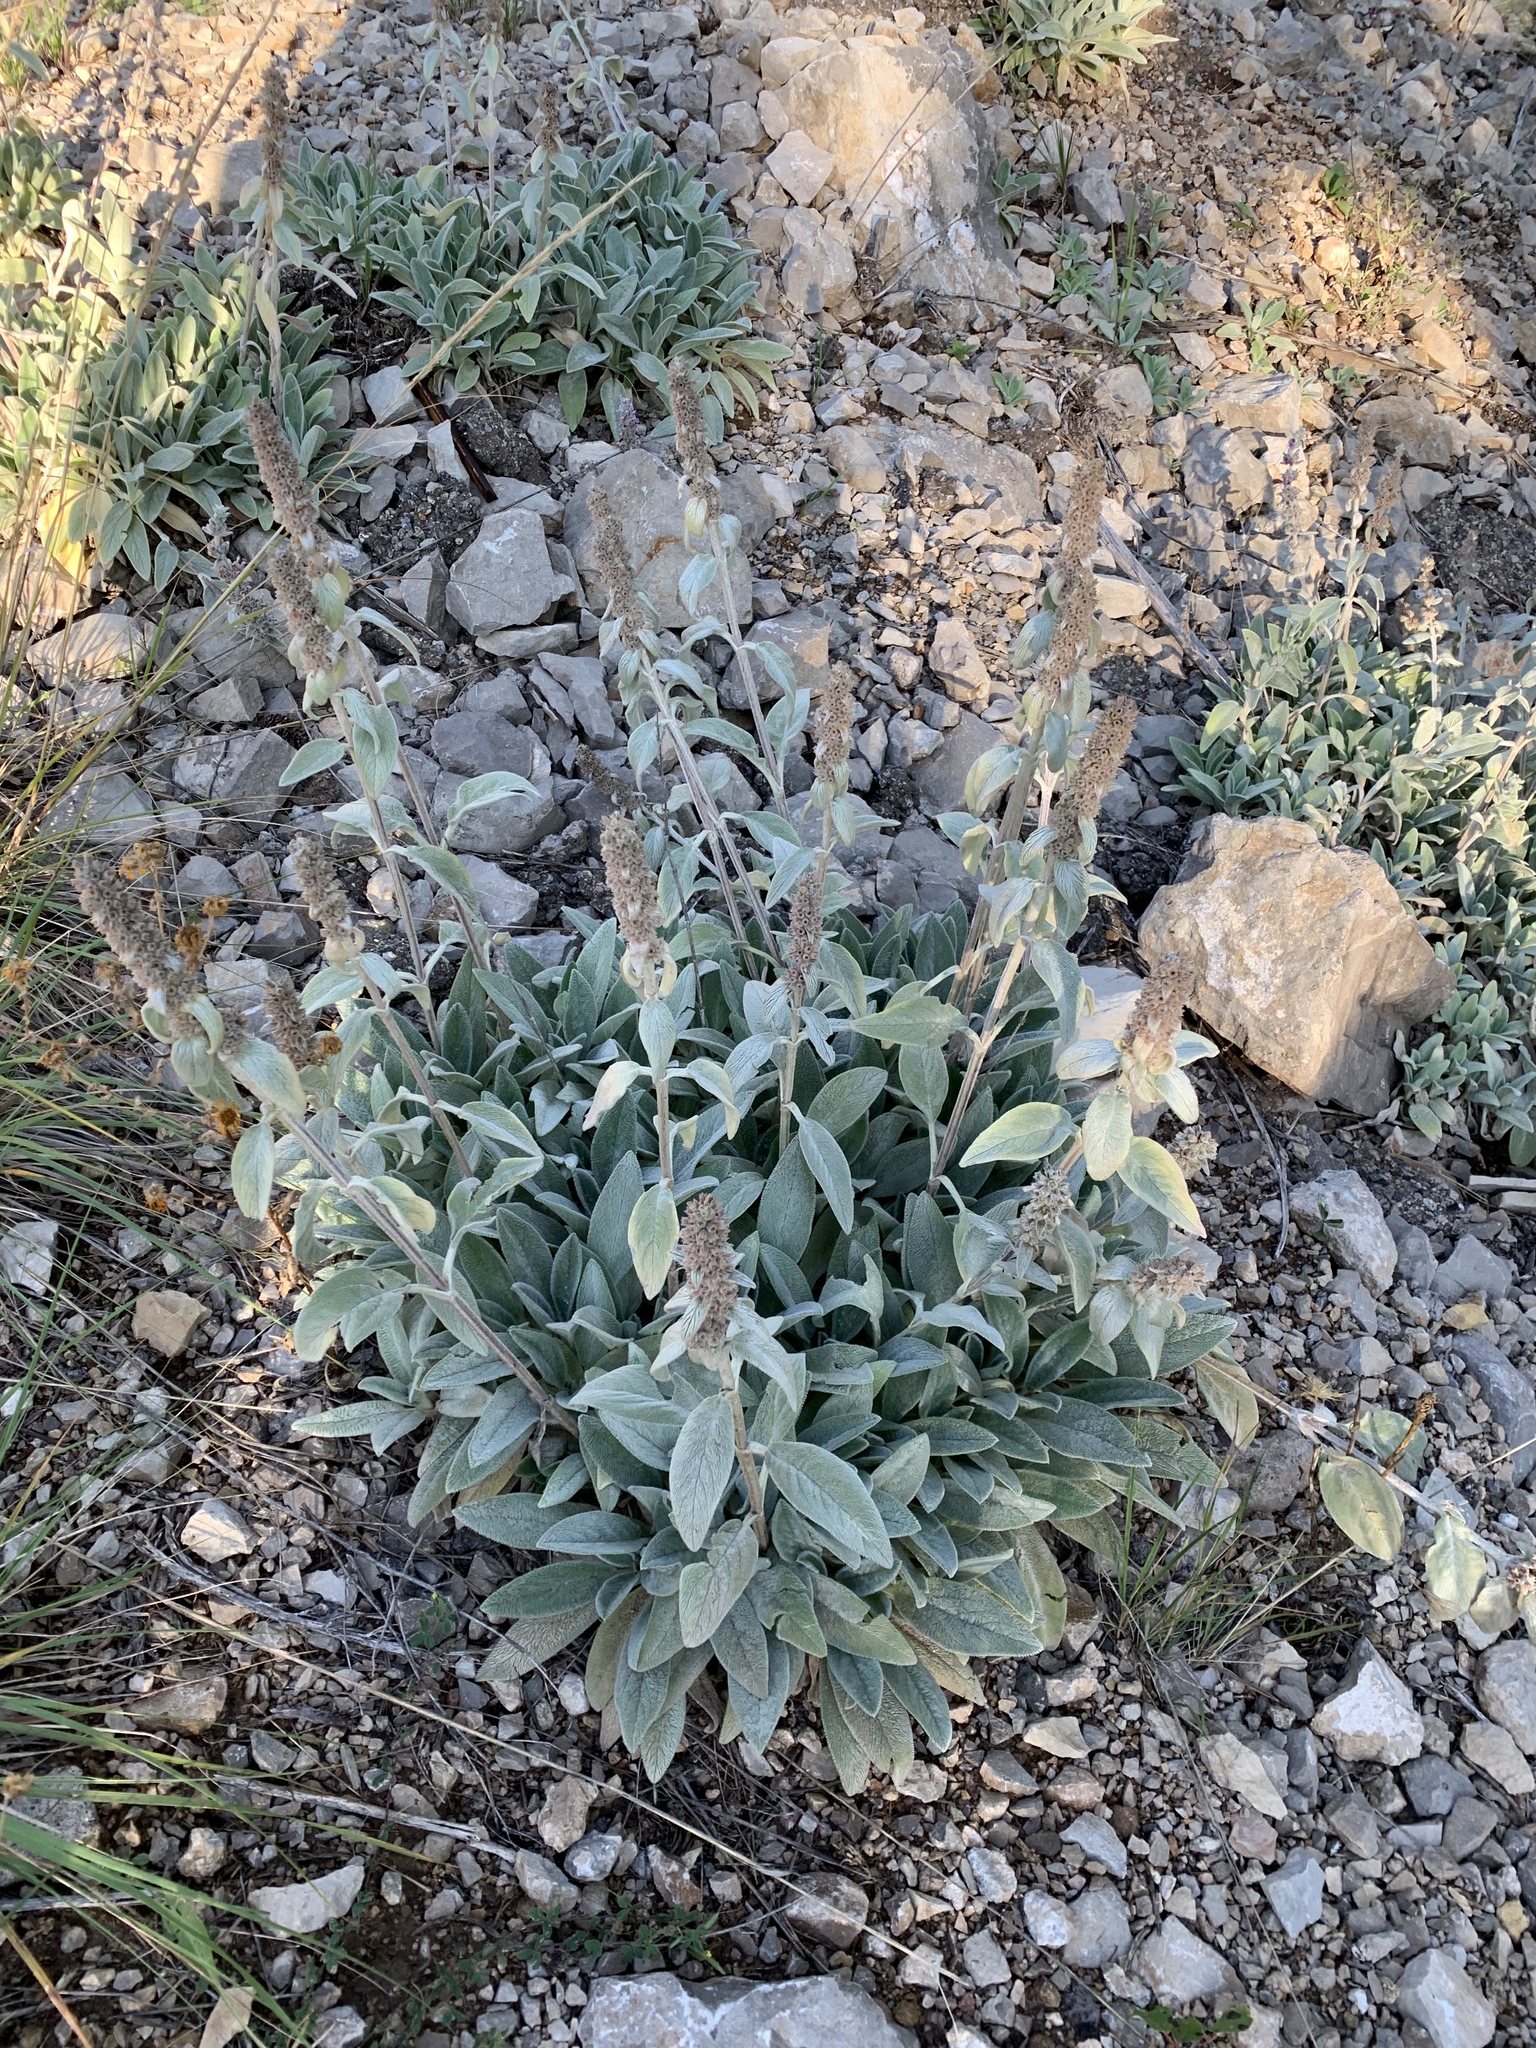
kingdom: Plantae
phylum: Tracheophyta
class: Magnoliopsida
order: Lamiales
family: Lamiaceae
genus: Stachys
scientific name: Stachys byzantina
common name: Lamb's-ear
